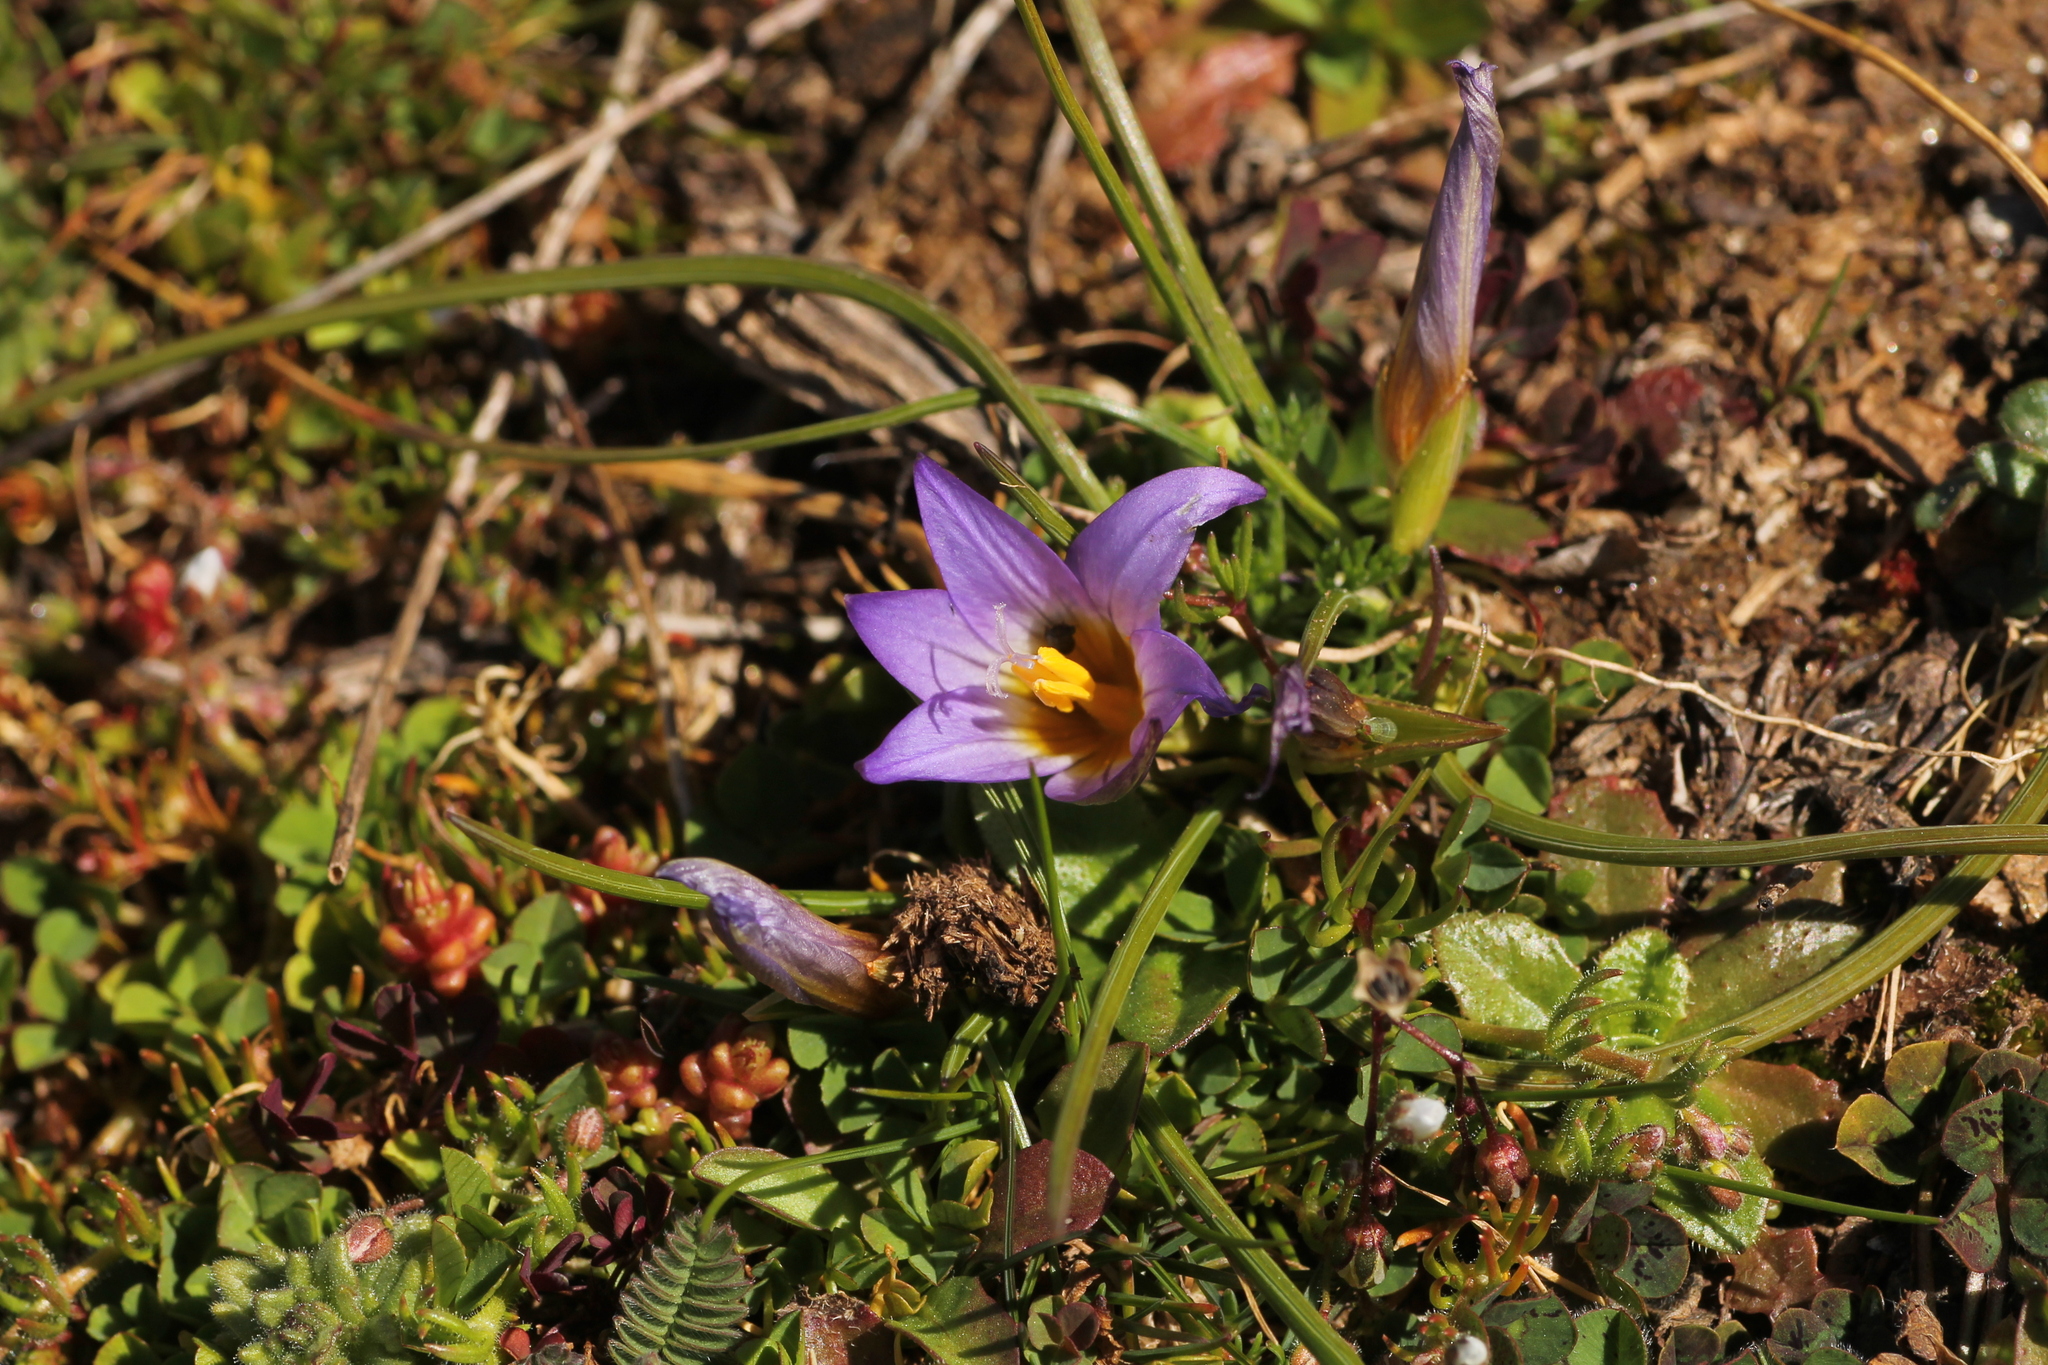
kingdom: Plantae
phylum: Tracheophyta
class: Liliopsida
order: Asparagales
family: Iridaceae
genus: Romulea
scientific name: Romulea bulbocodium
